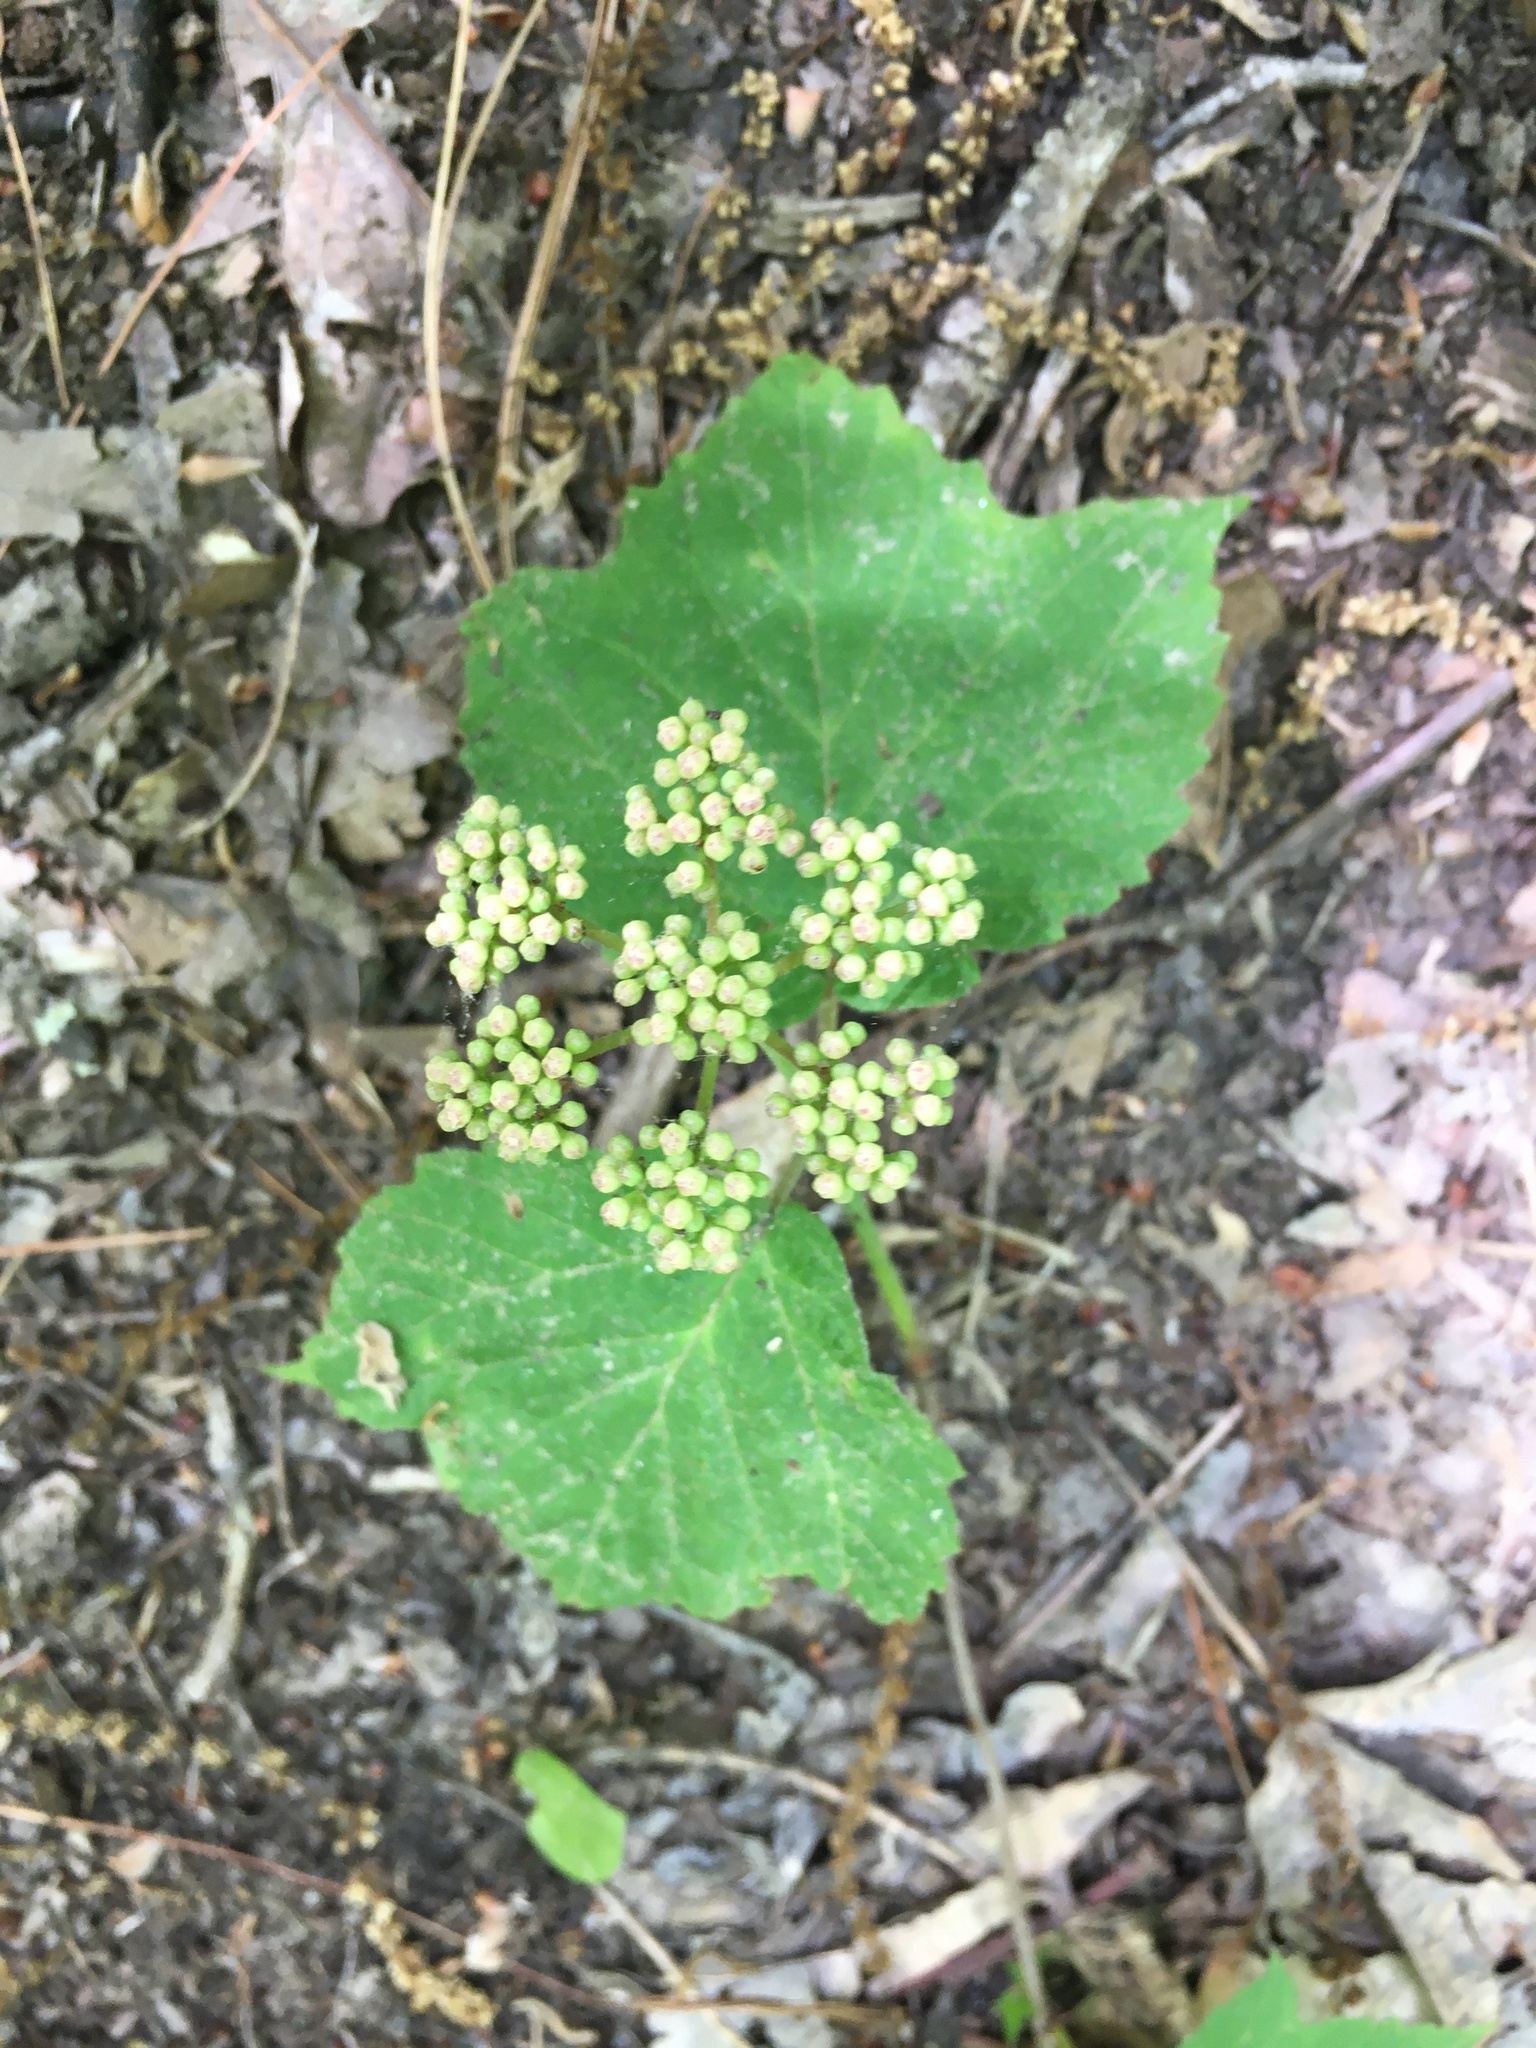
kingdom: Plantae
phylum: Tracheophyta
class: Magnoliopsida
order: Dipsacales
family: Viburnaceae
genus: Viburnum
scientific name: Viburnum acerifolium
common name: Dockmackie
